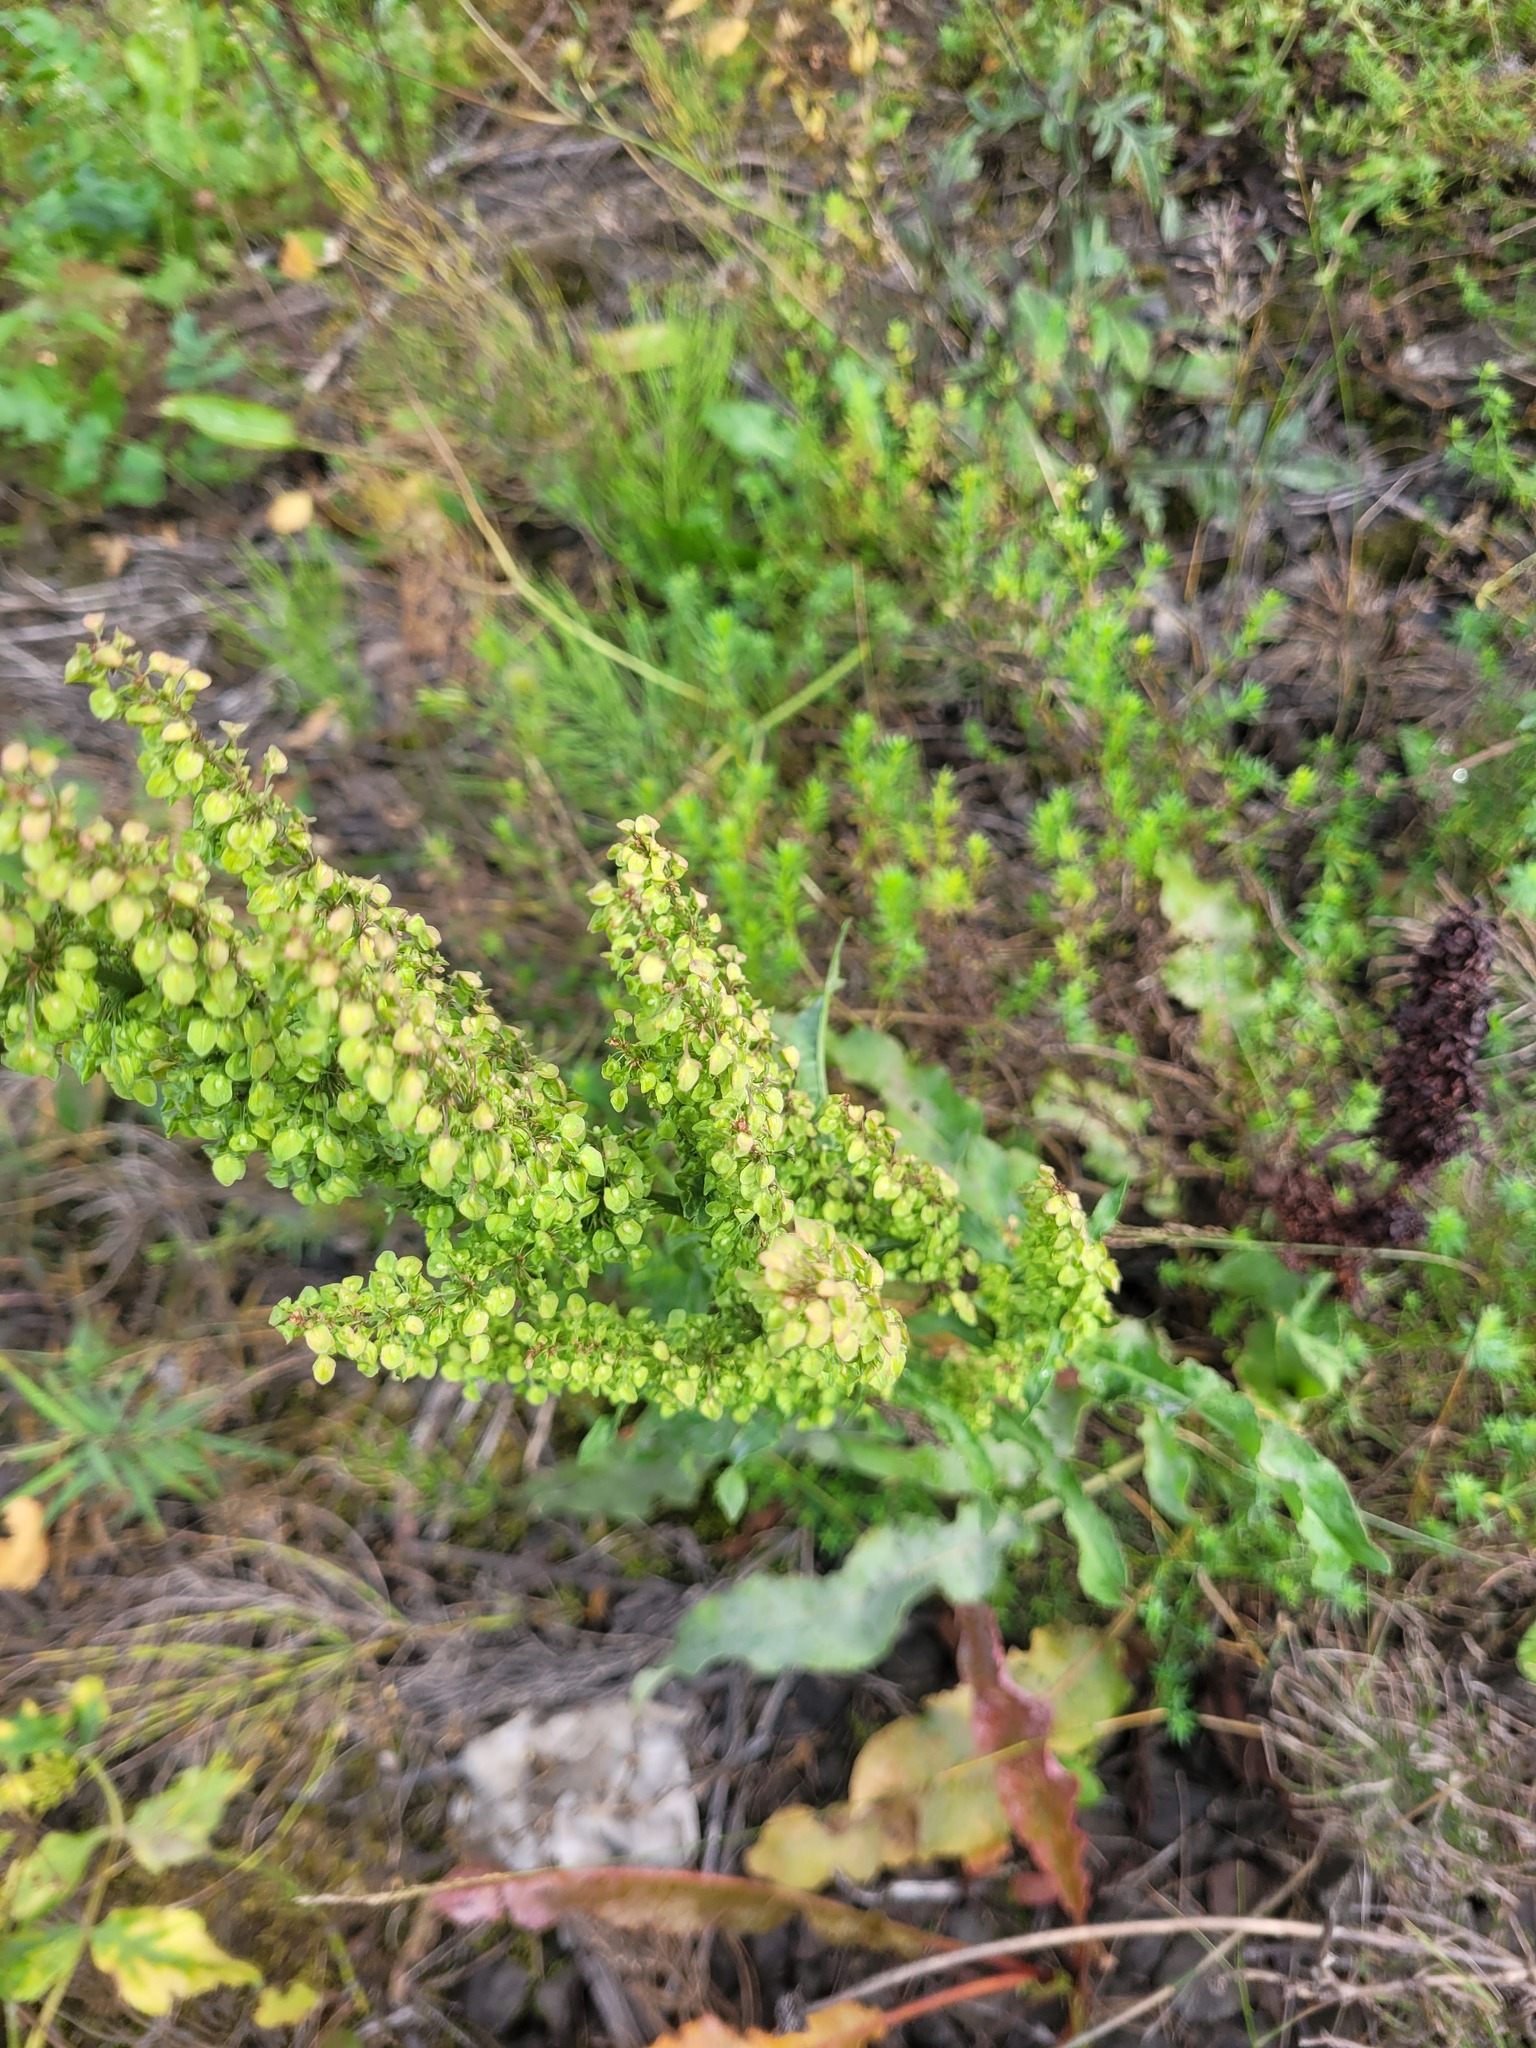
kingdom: Plantae
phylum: Tracheophyta
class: Magnoliopsida
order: Caryophyllales
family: Polygonaceae
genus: Rumex
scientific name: Rumex crispus
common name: Curled dock
